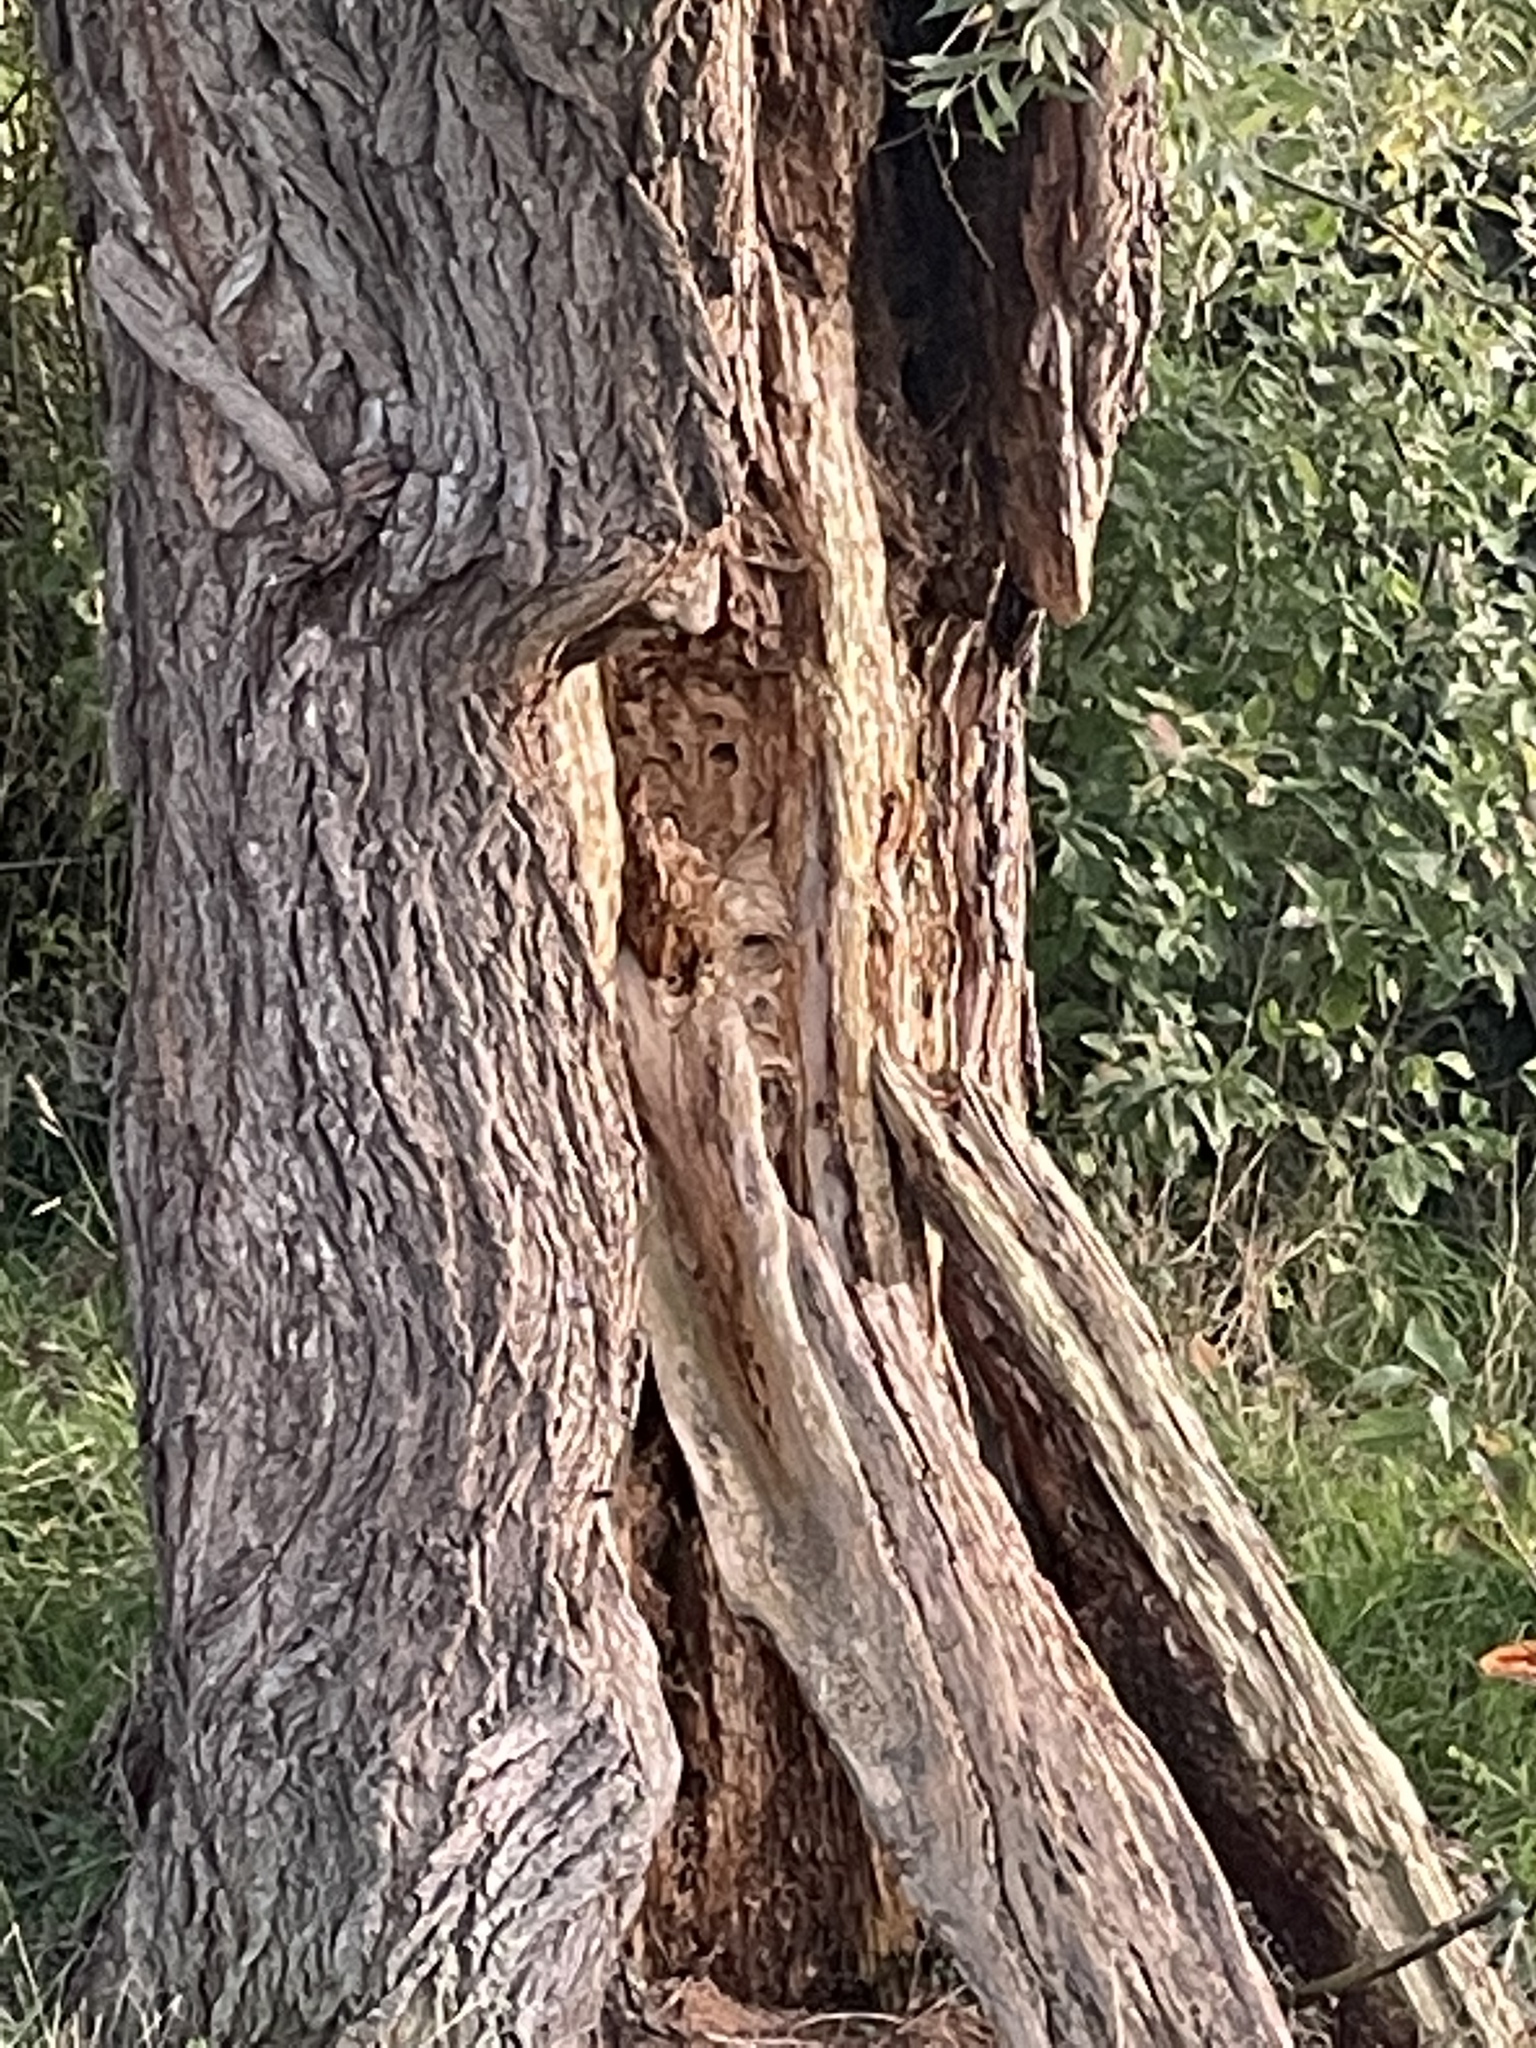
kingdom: Animalia
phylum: Arthropoda
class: Insecta
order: Hymenoptera
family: Vespidae
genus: Vespa
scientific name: Vespa crabro
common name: Hornet
